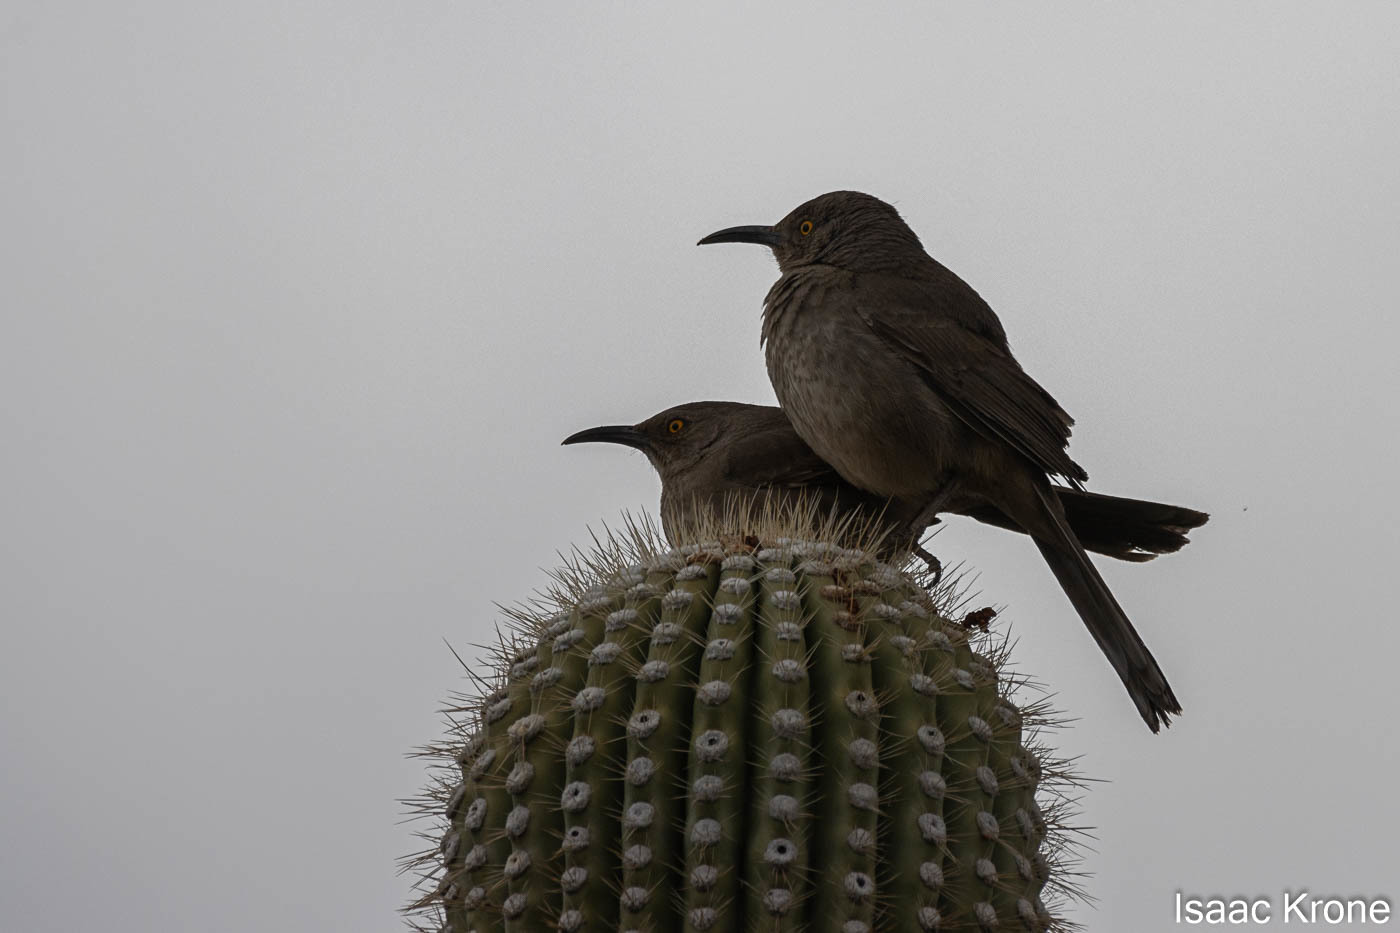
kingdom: Animalia
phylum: Chordata
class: Aves
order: Passeriformes
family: Mimidae
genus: Toxostoma
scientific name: Toxostoma curvirostre
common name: Curve-billed thrasher
